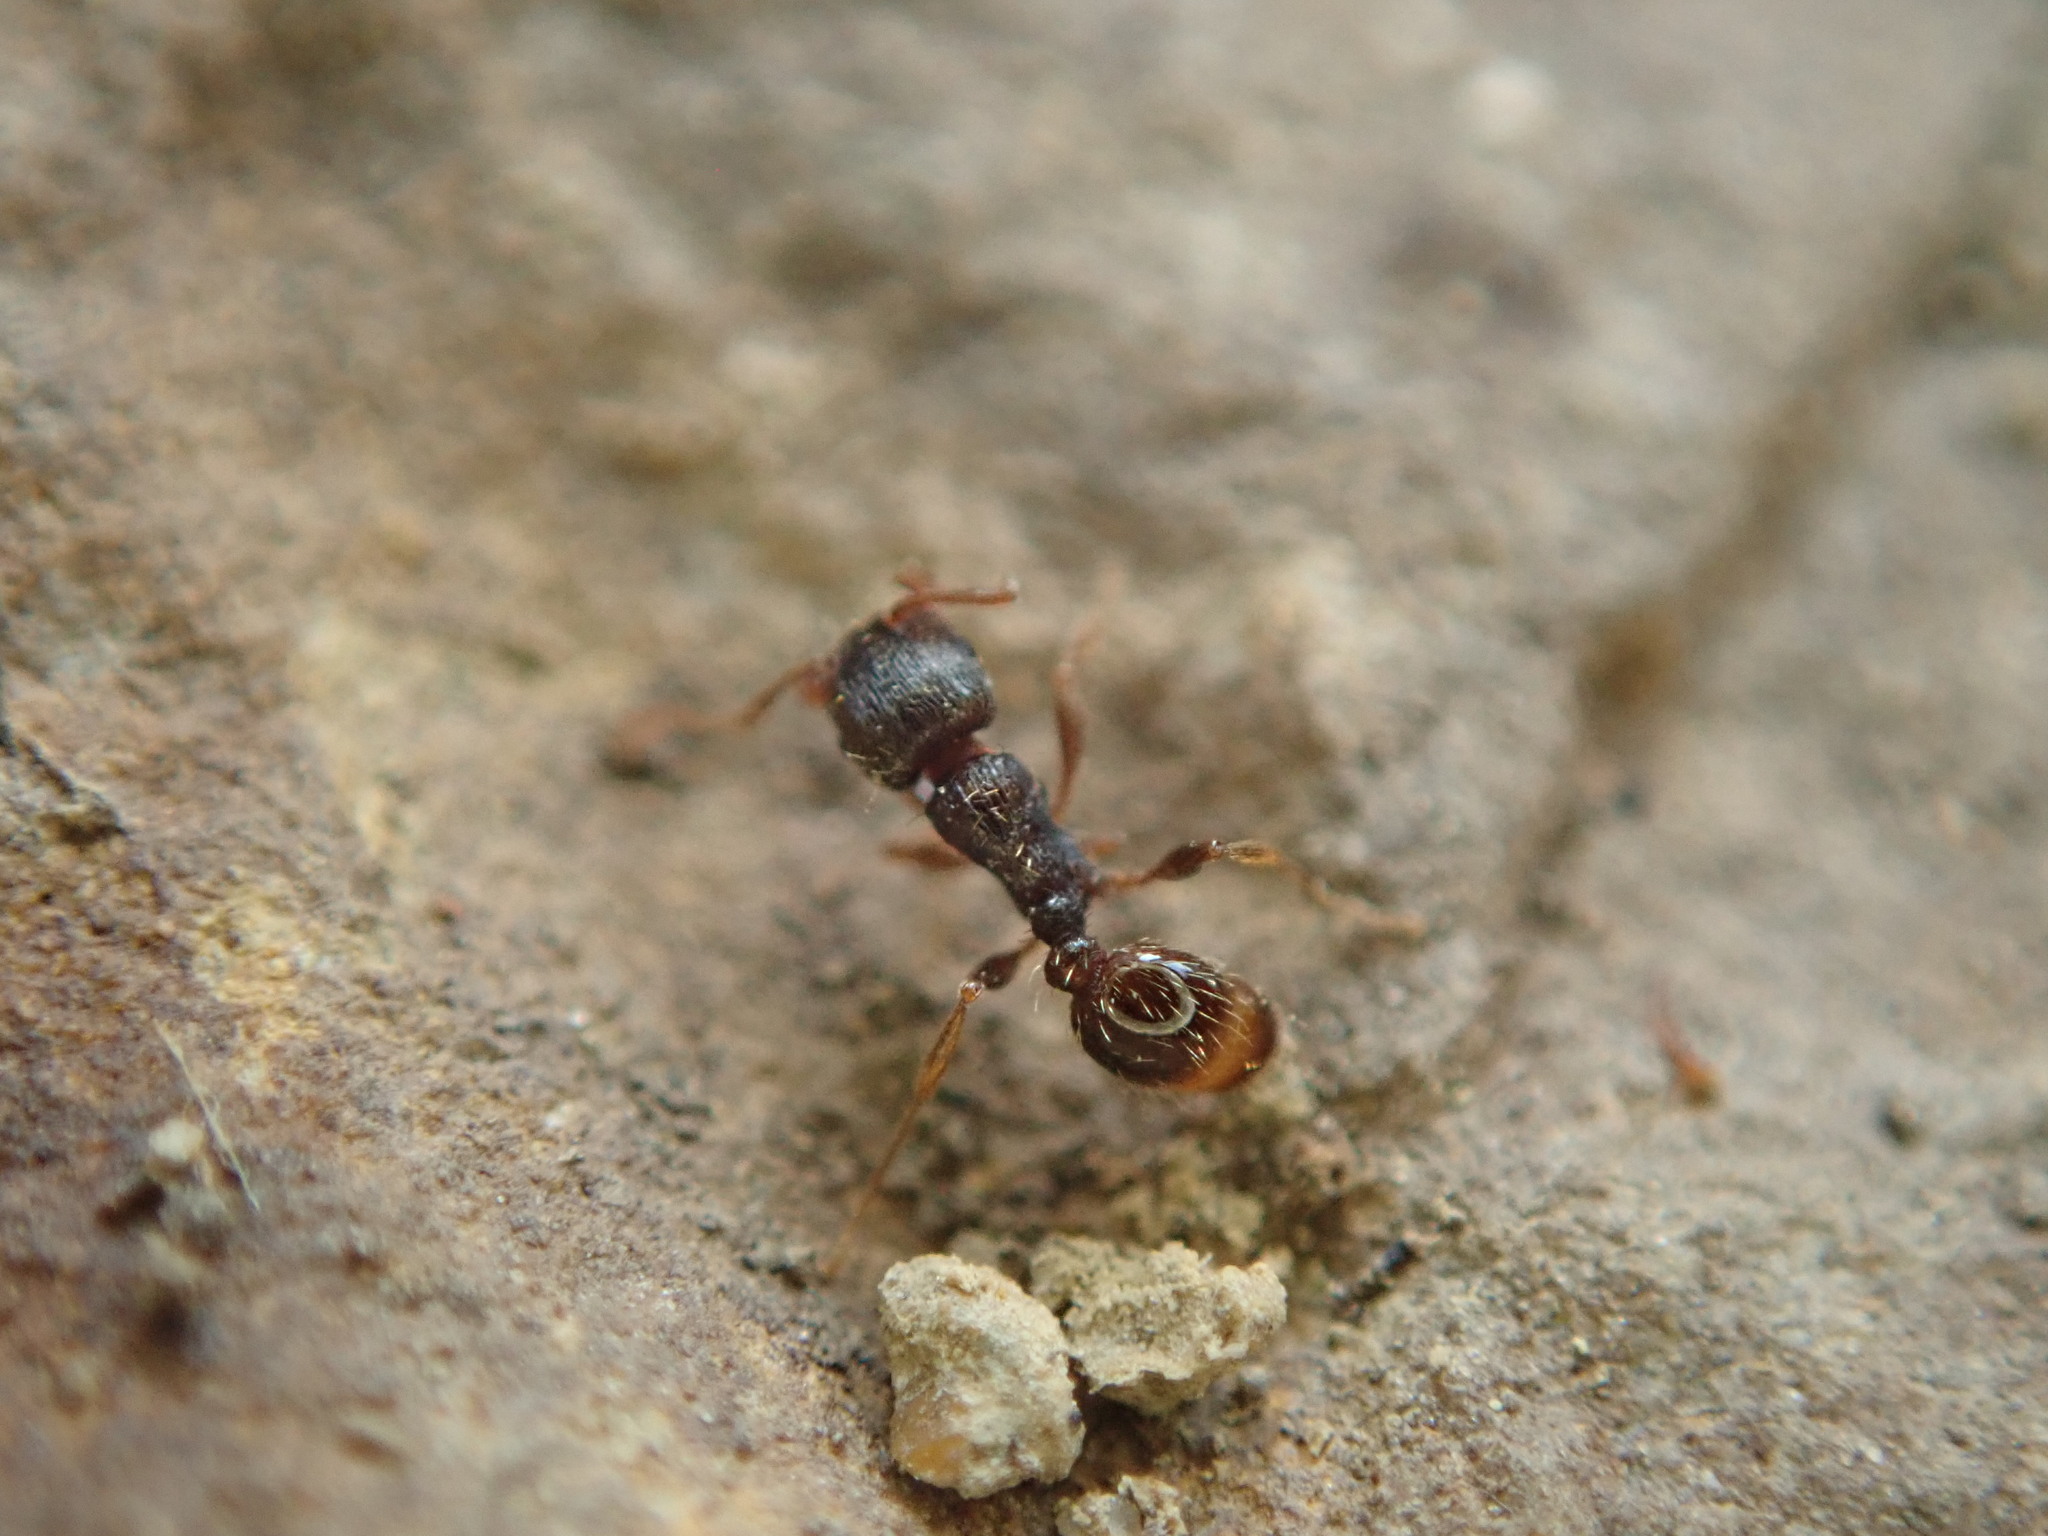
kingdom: Animalia
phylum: Arthropoda
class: Insecta
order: Hymenoptera
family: Formicidae
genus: Tetramorium
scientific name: Tetramorium immigrans
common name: Pavement ant
